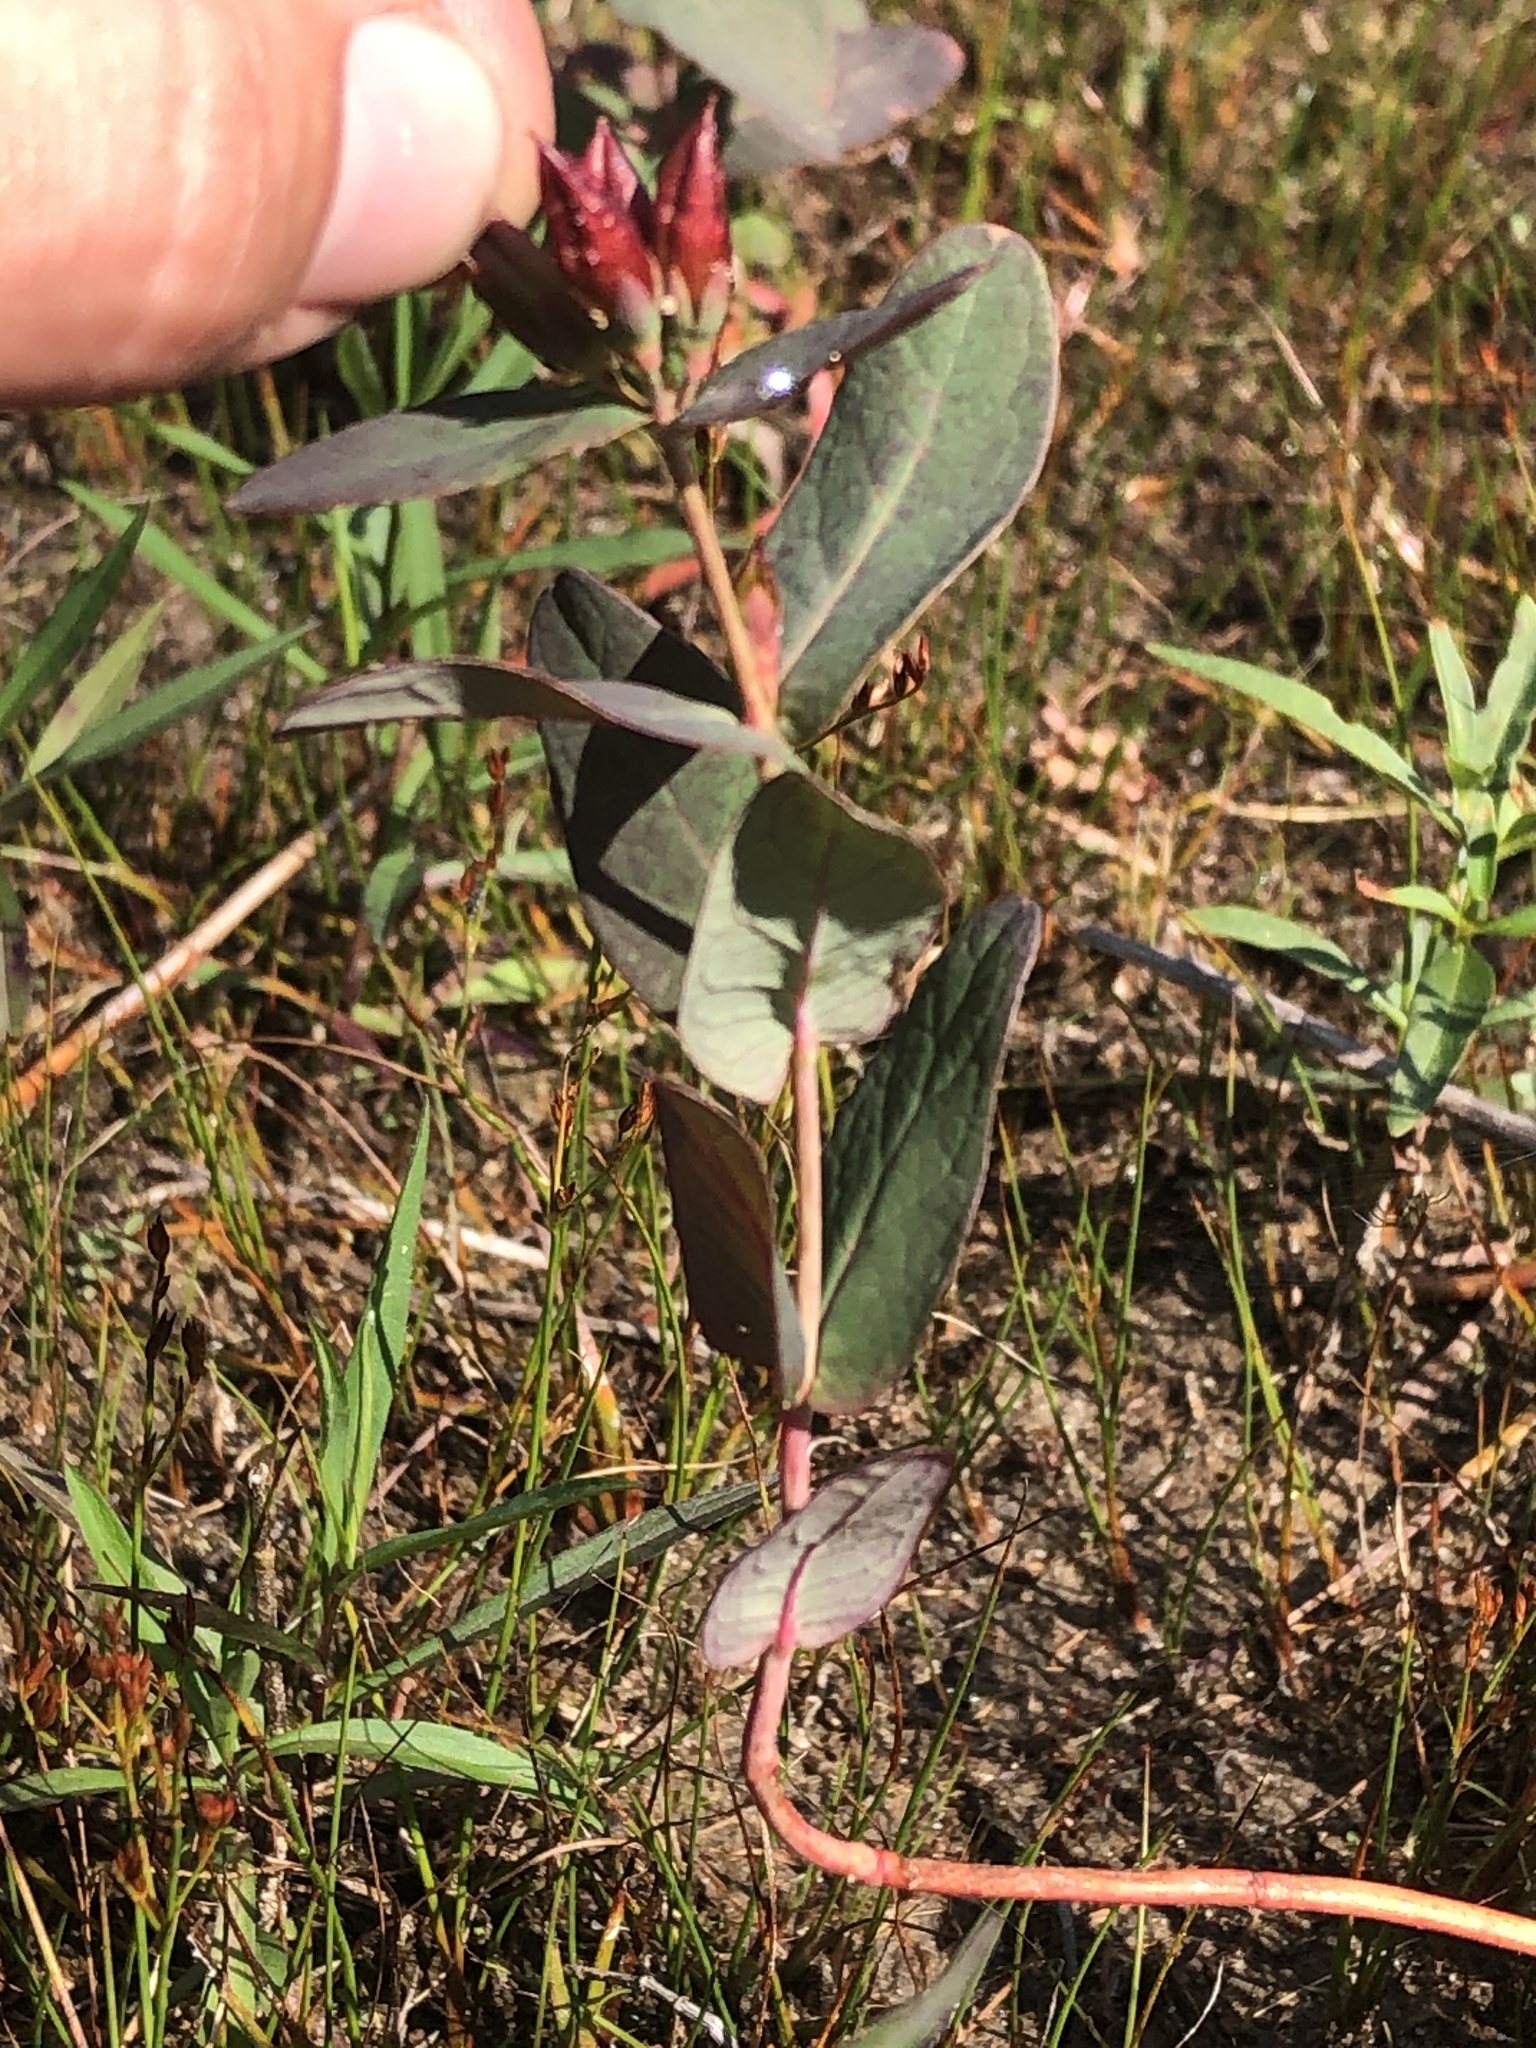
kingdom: Plantae
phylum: Tracheophyta
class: Magnoliopsida
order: Malpighiales
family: Hypericaceae
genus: Triadenum
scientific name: Triadenum fraseri
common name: Fraser's marsh st. johnswort
